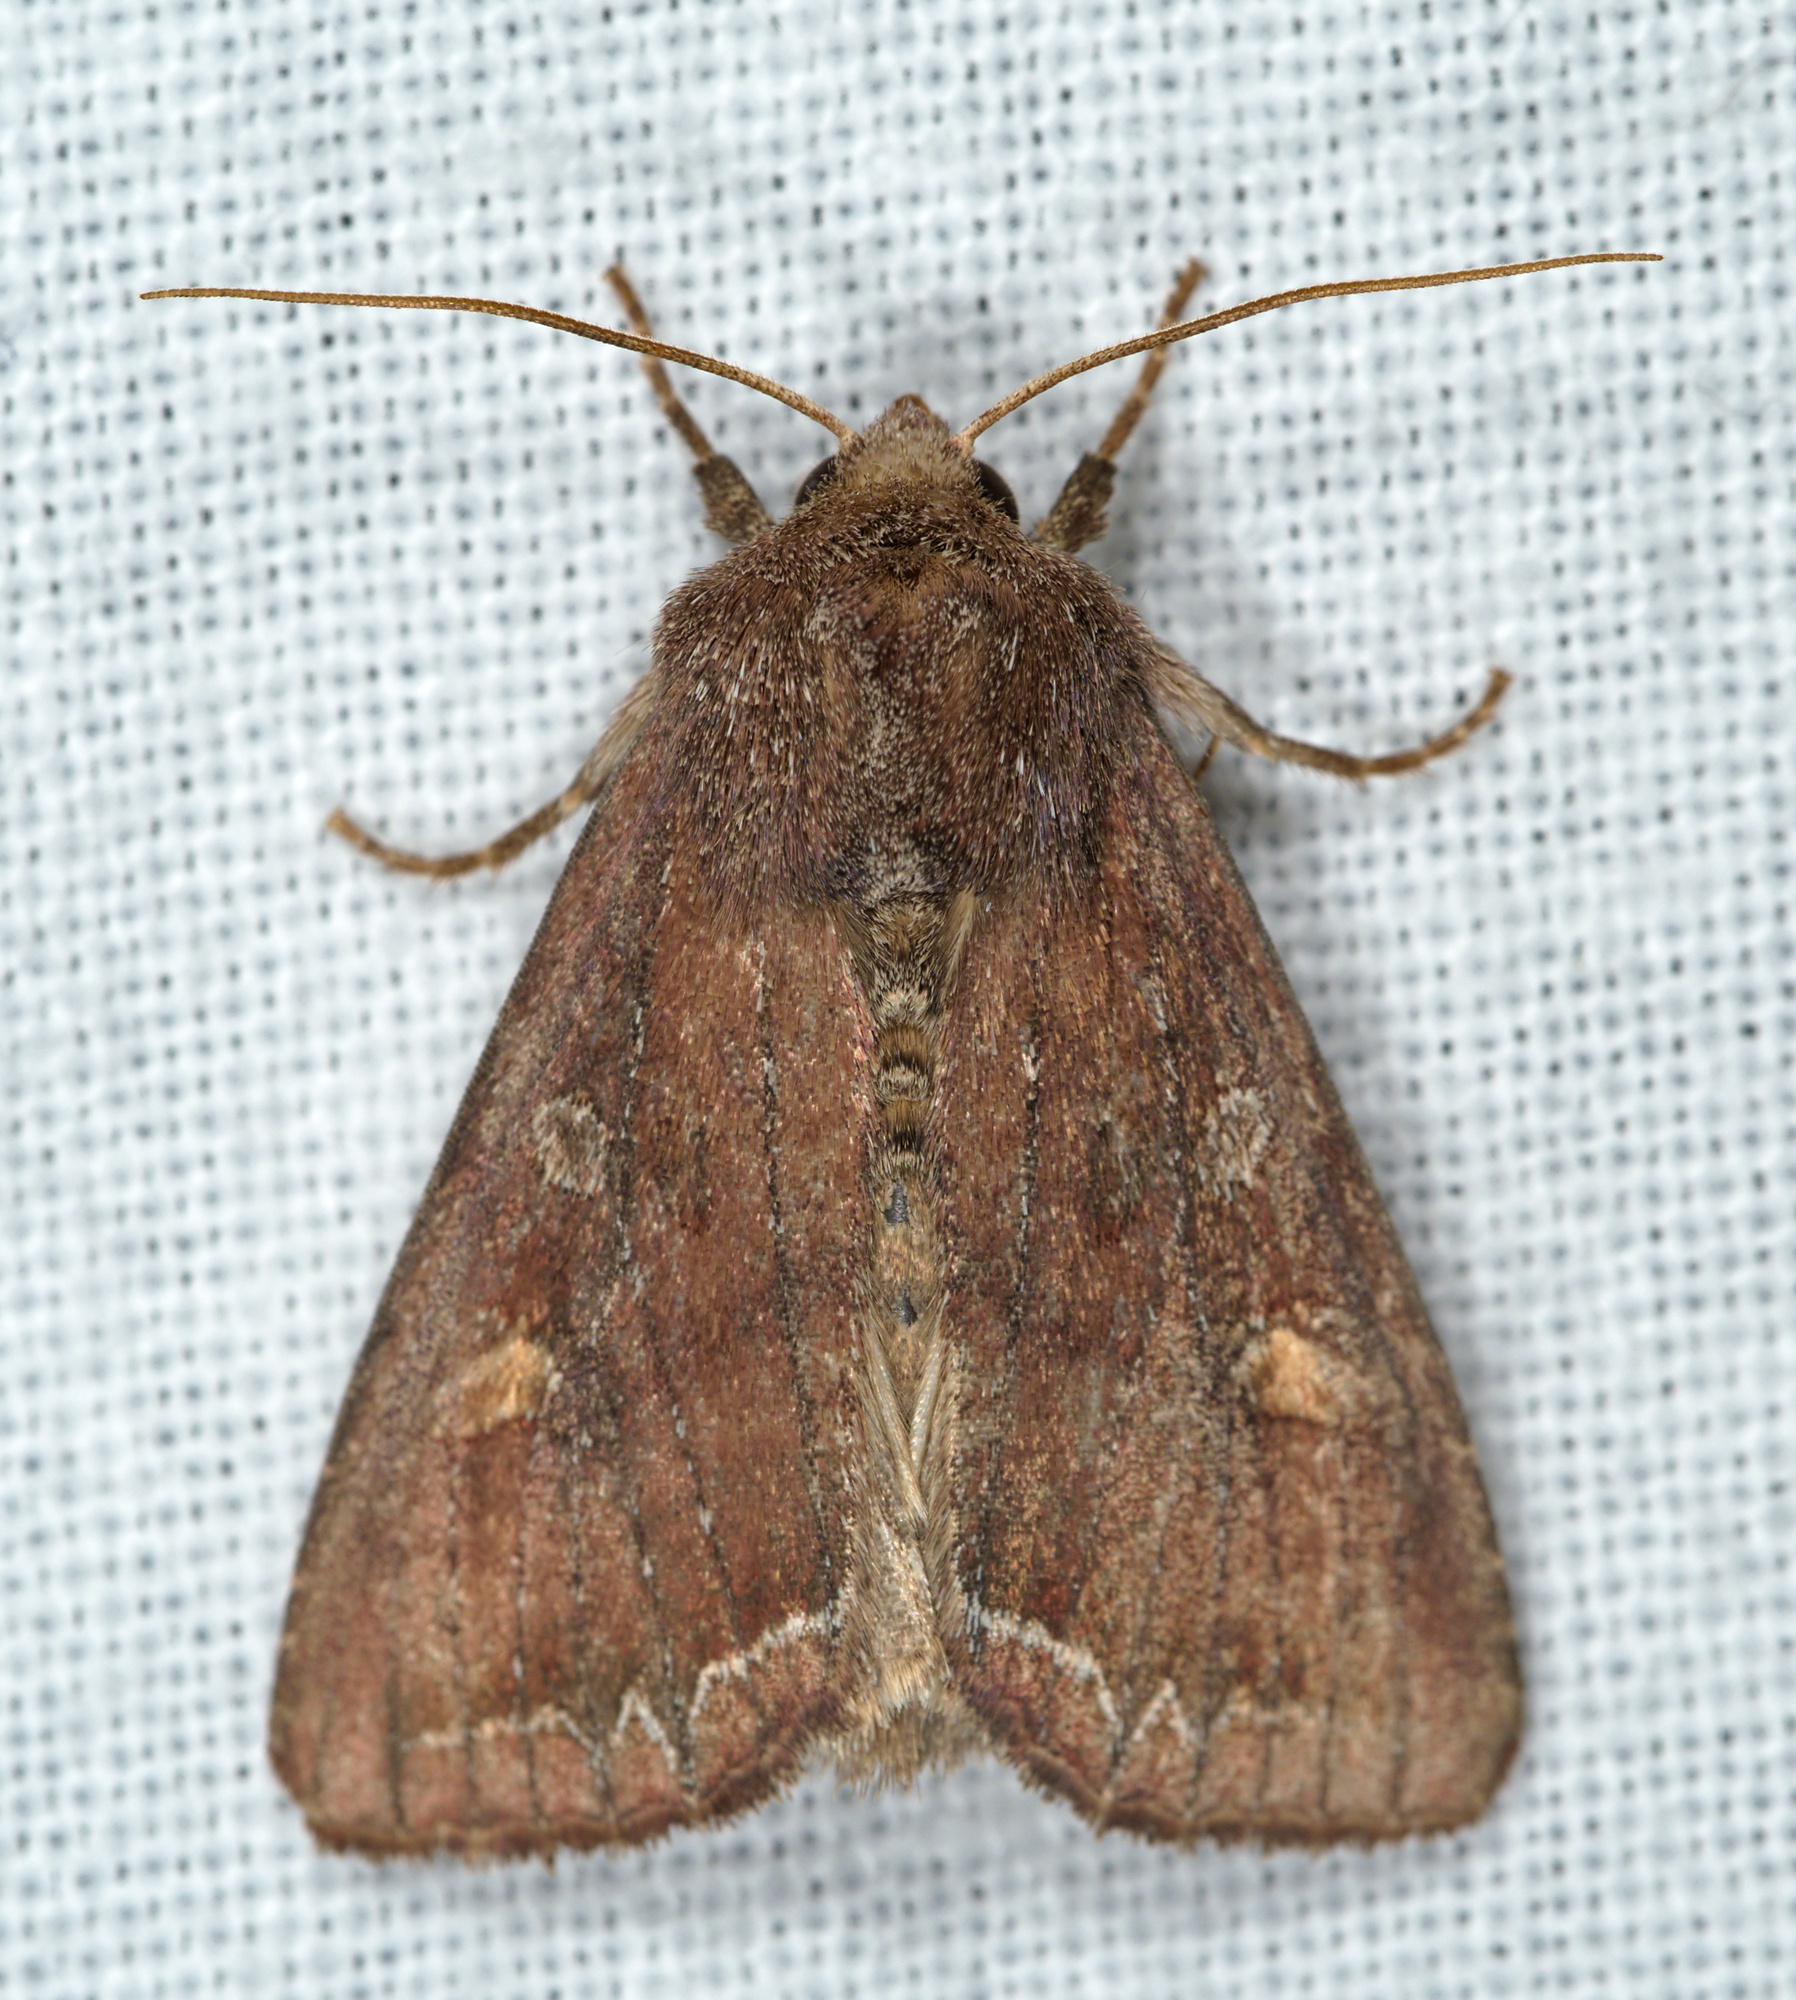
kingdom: Animalia
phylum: Arthropoda
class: Insecta
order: Lepidoptera
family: Noctuidae
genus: Lacanobia
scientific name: Lacanobia oleracea
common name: Bright-line brown-eye
